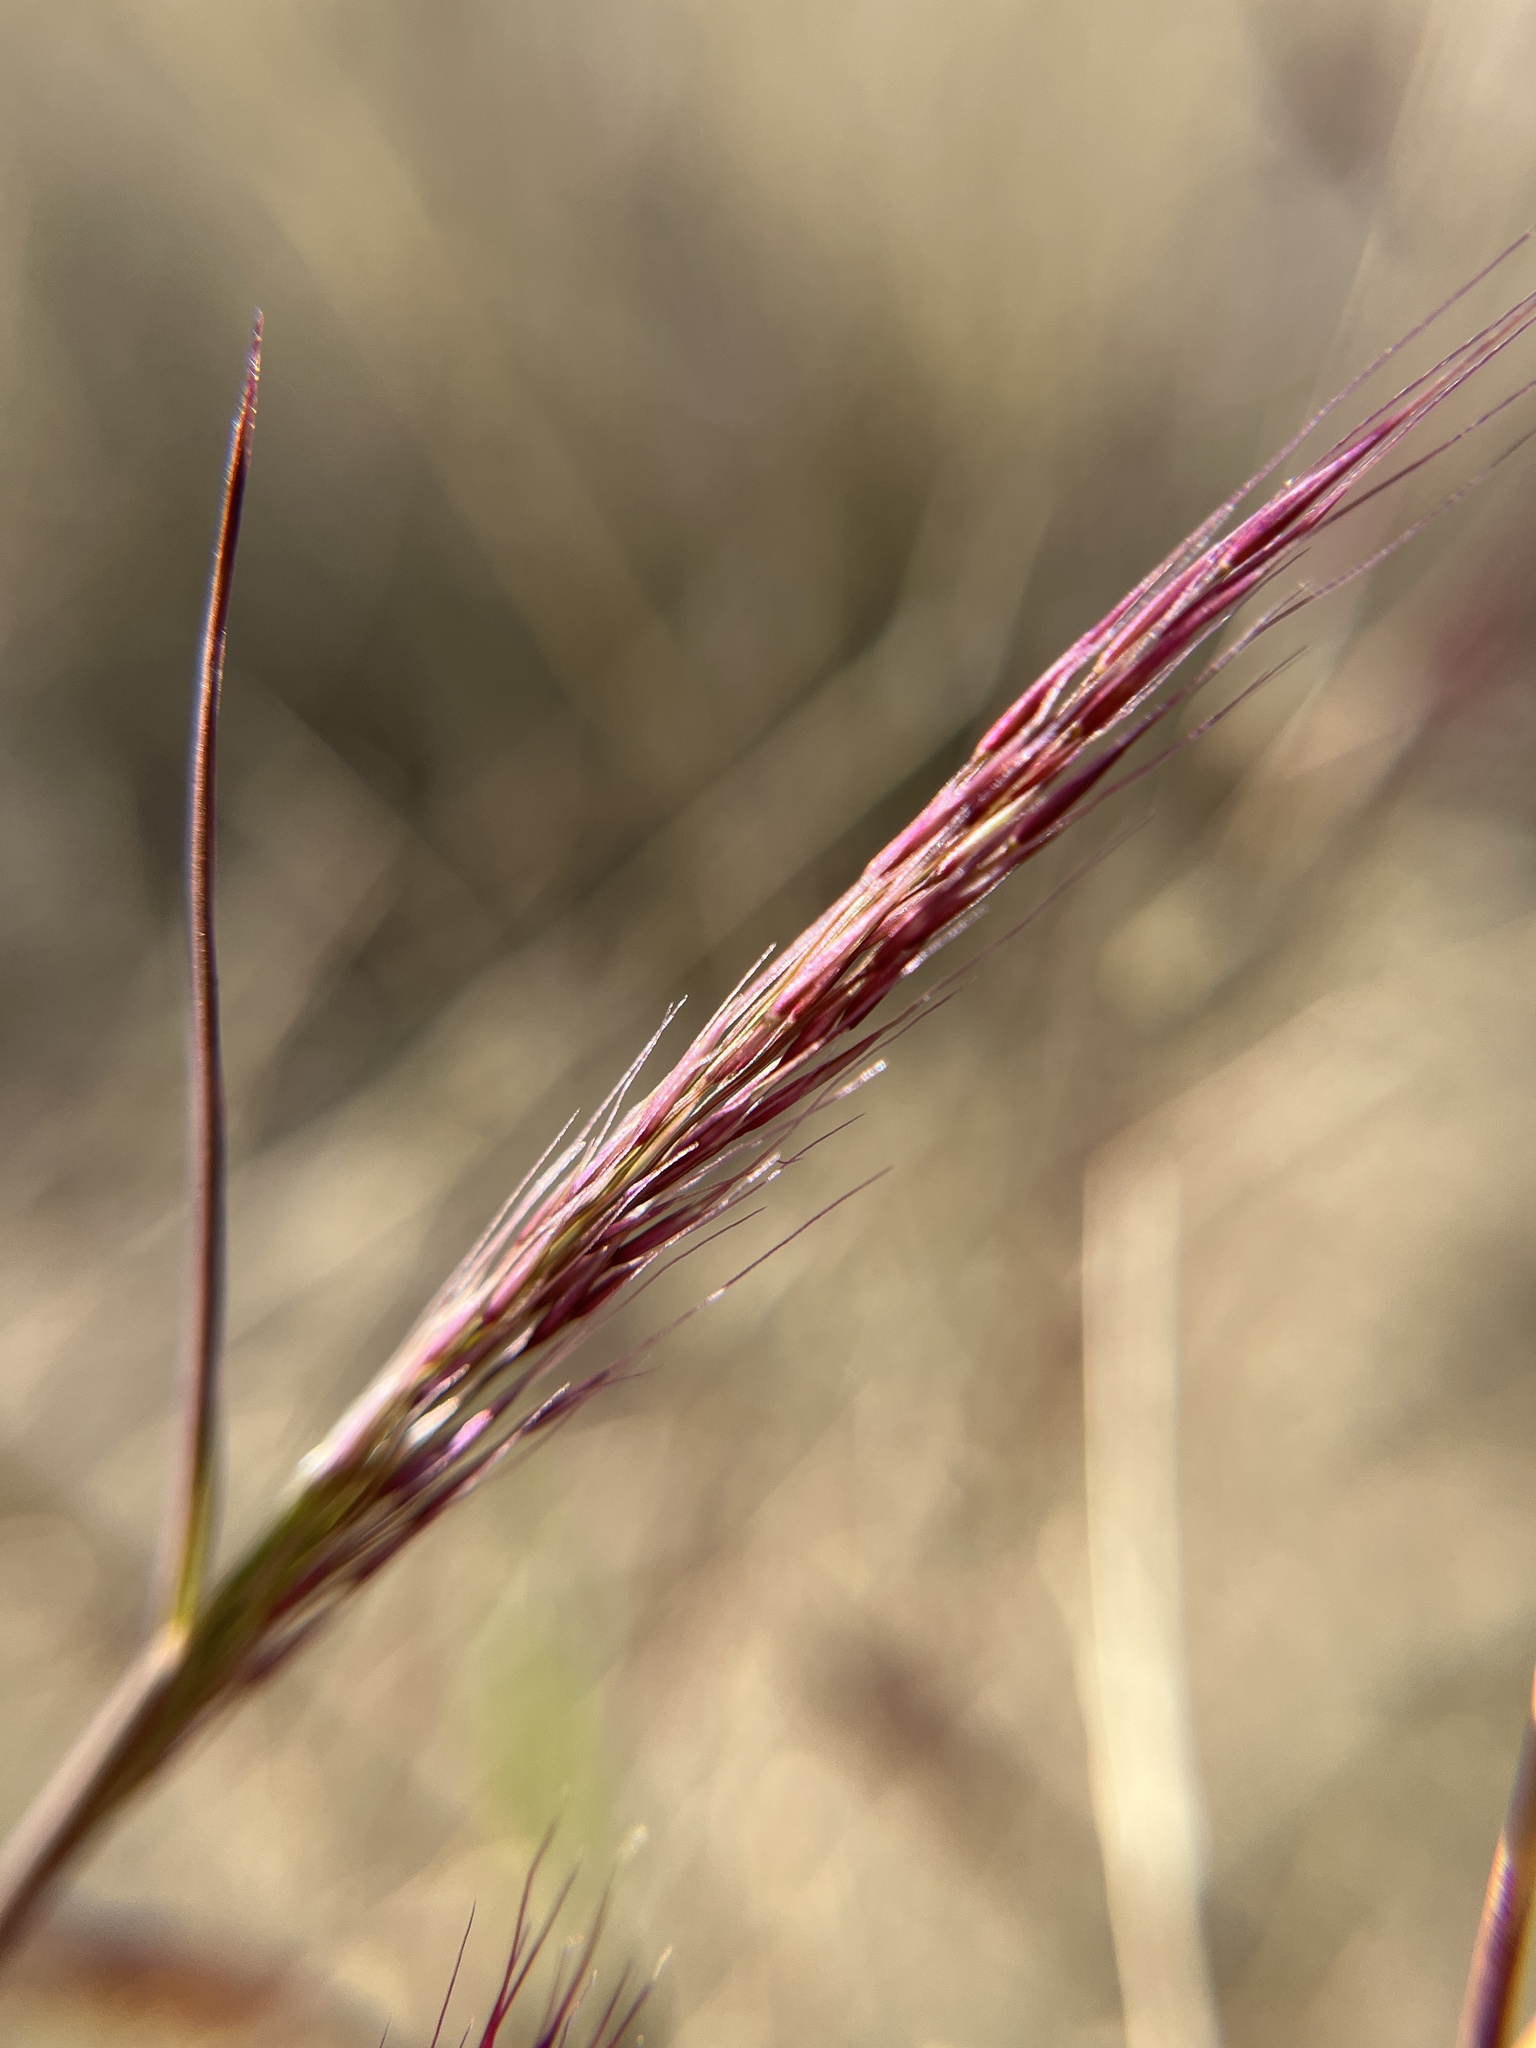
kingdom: Plantae
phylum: Tracheophyta
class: Liliopsida
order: Poales
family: Poaceae
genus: Muhlenbergia
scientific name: Muhlenbergia porteri
